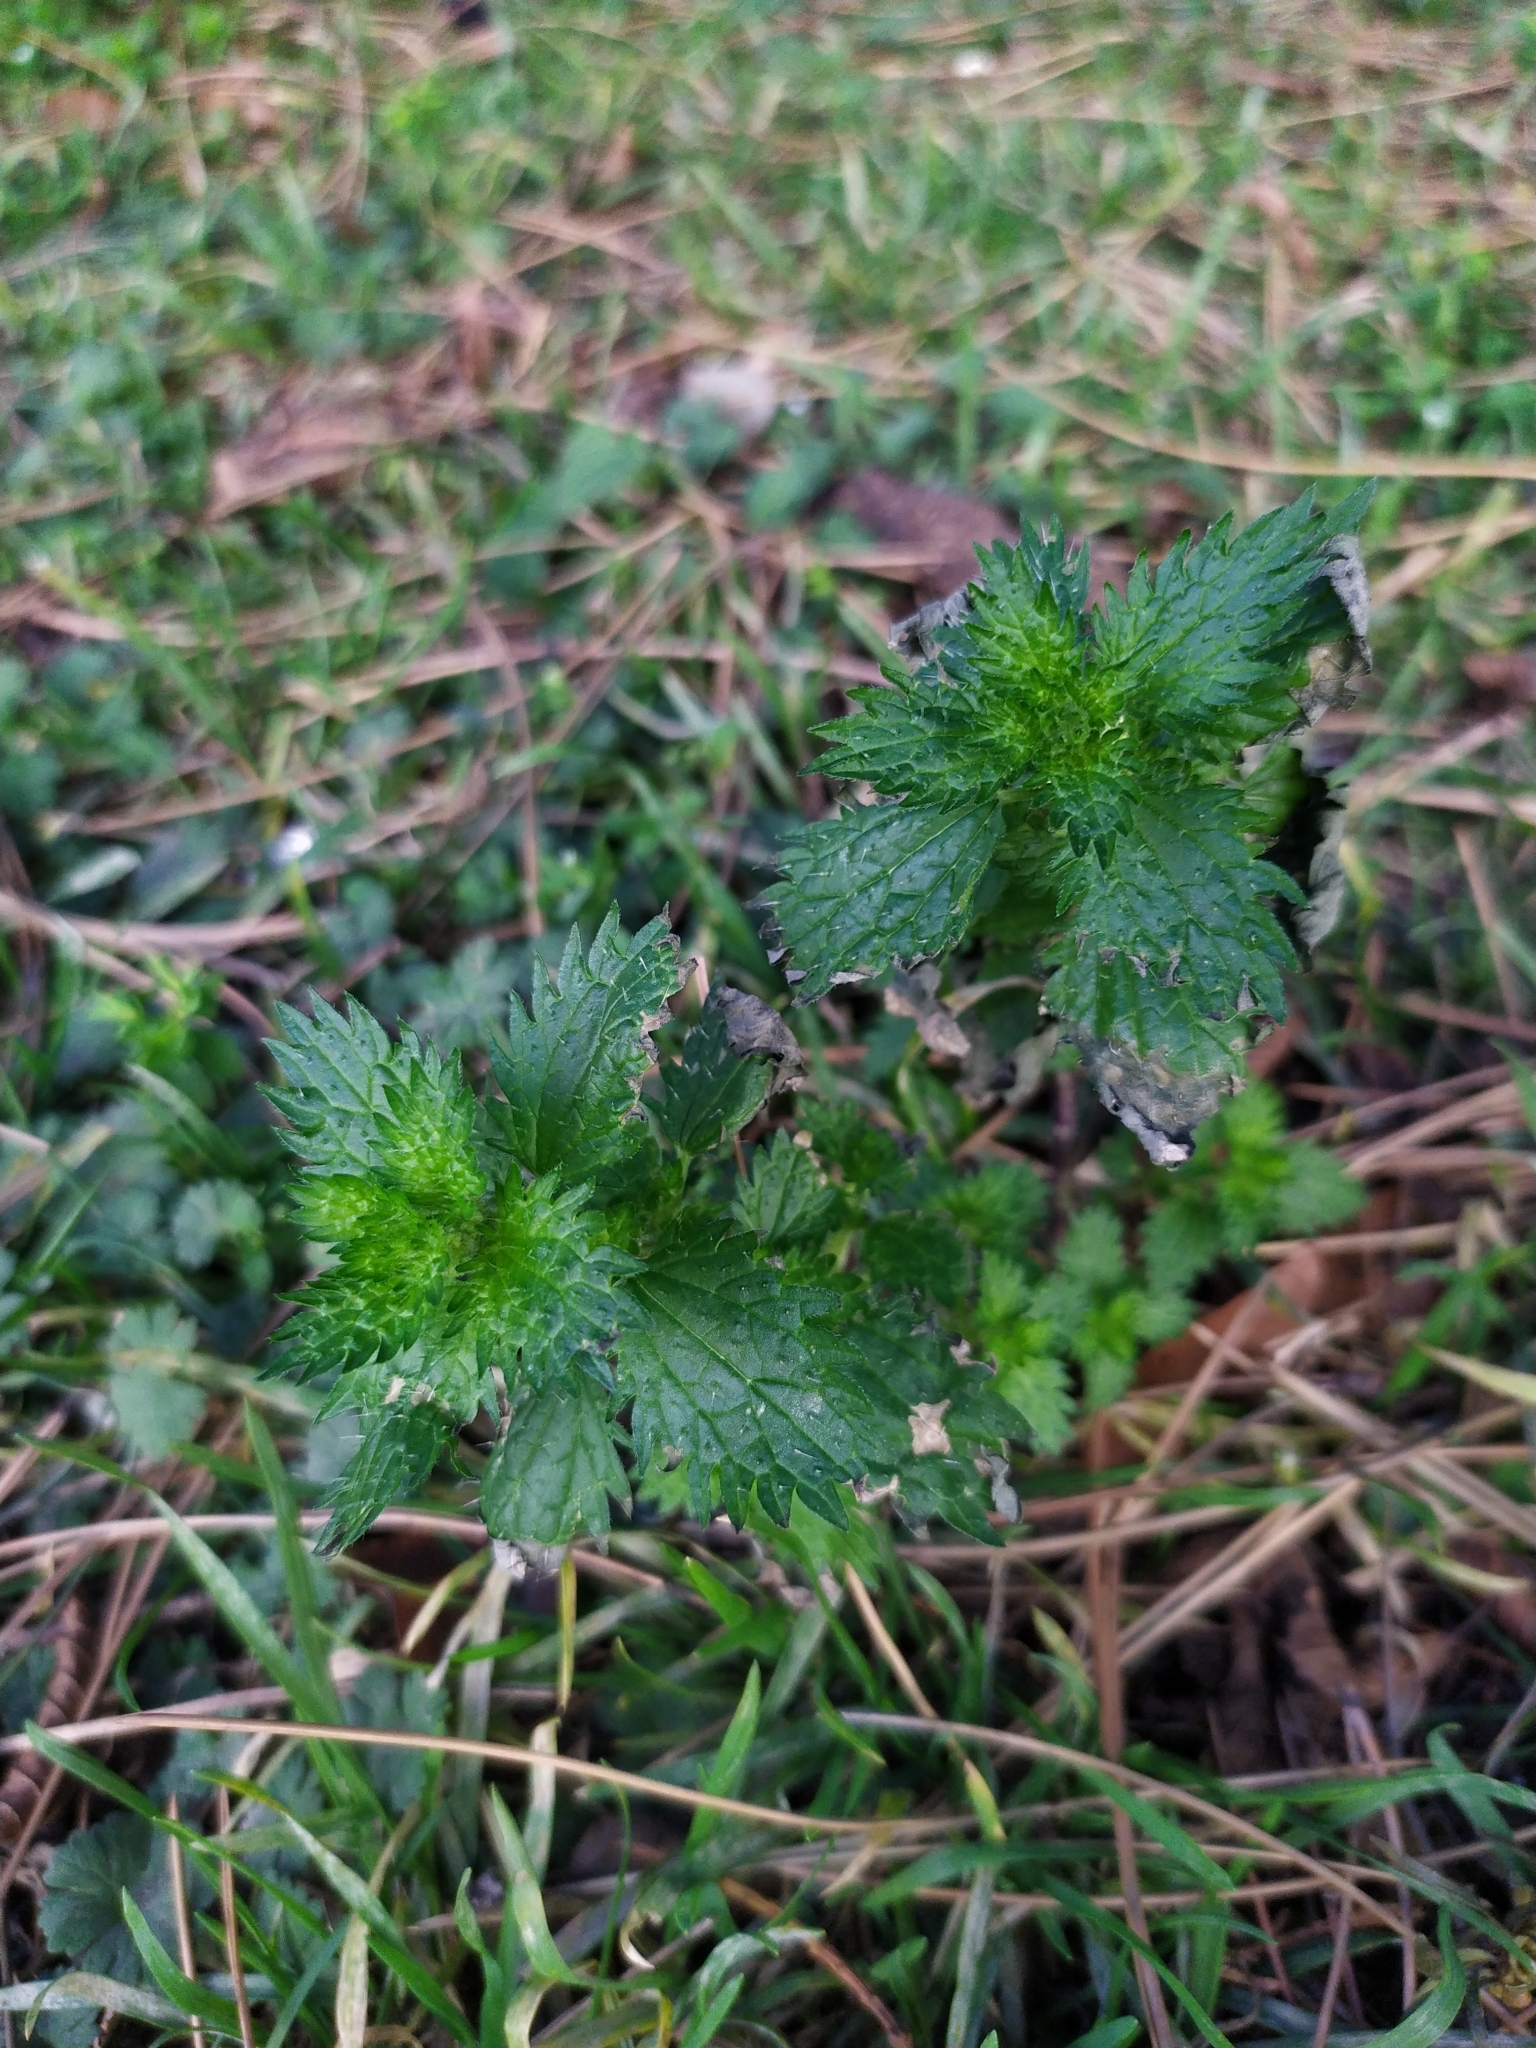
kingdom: Plantae
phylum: Tracheophyta
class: Magnoliopsida
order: Rosales
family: Urticaceae
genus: Urtica
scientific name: Urtica urens
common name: Dwarf nettle
